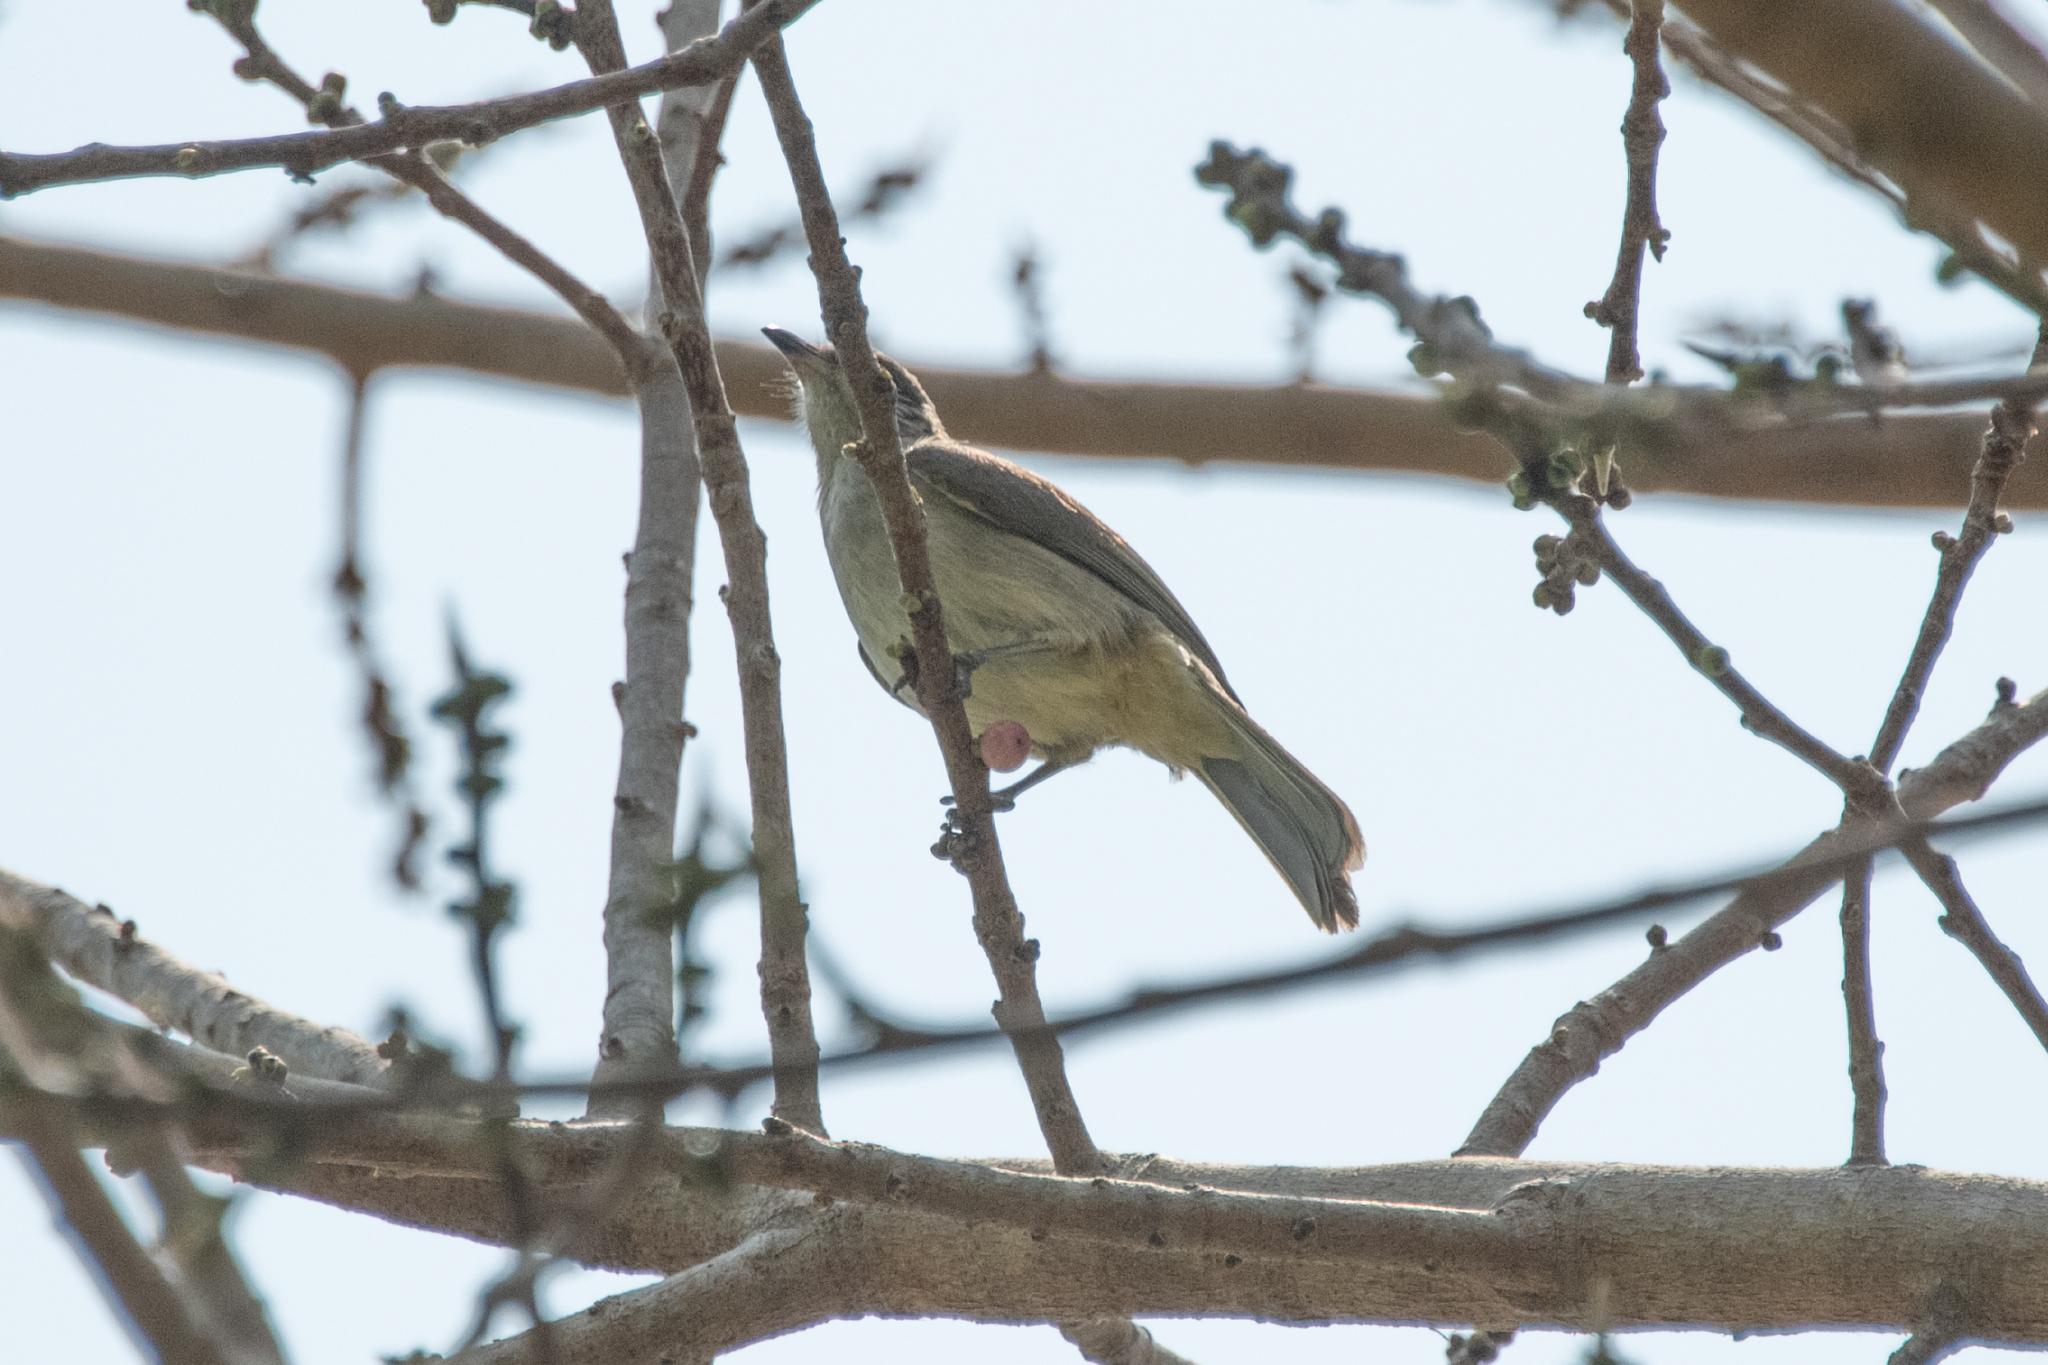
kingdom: Animalia
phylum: Chordata
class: Aves
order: Passeriformes
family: Pycnonotidae
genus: Pycnonotus
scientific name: Pycnonotus blanfordi
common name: Streak-eared bulbul
